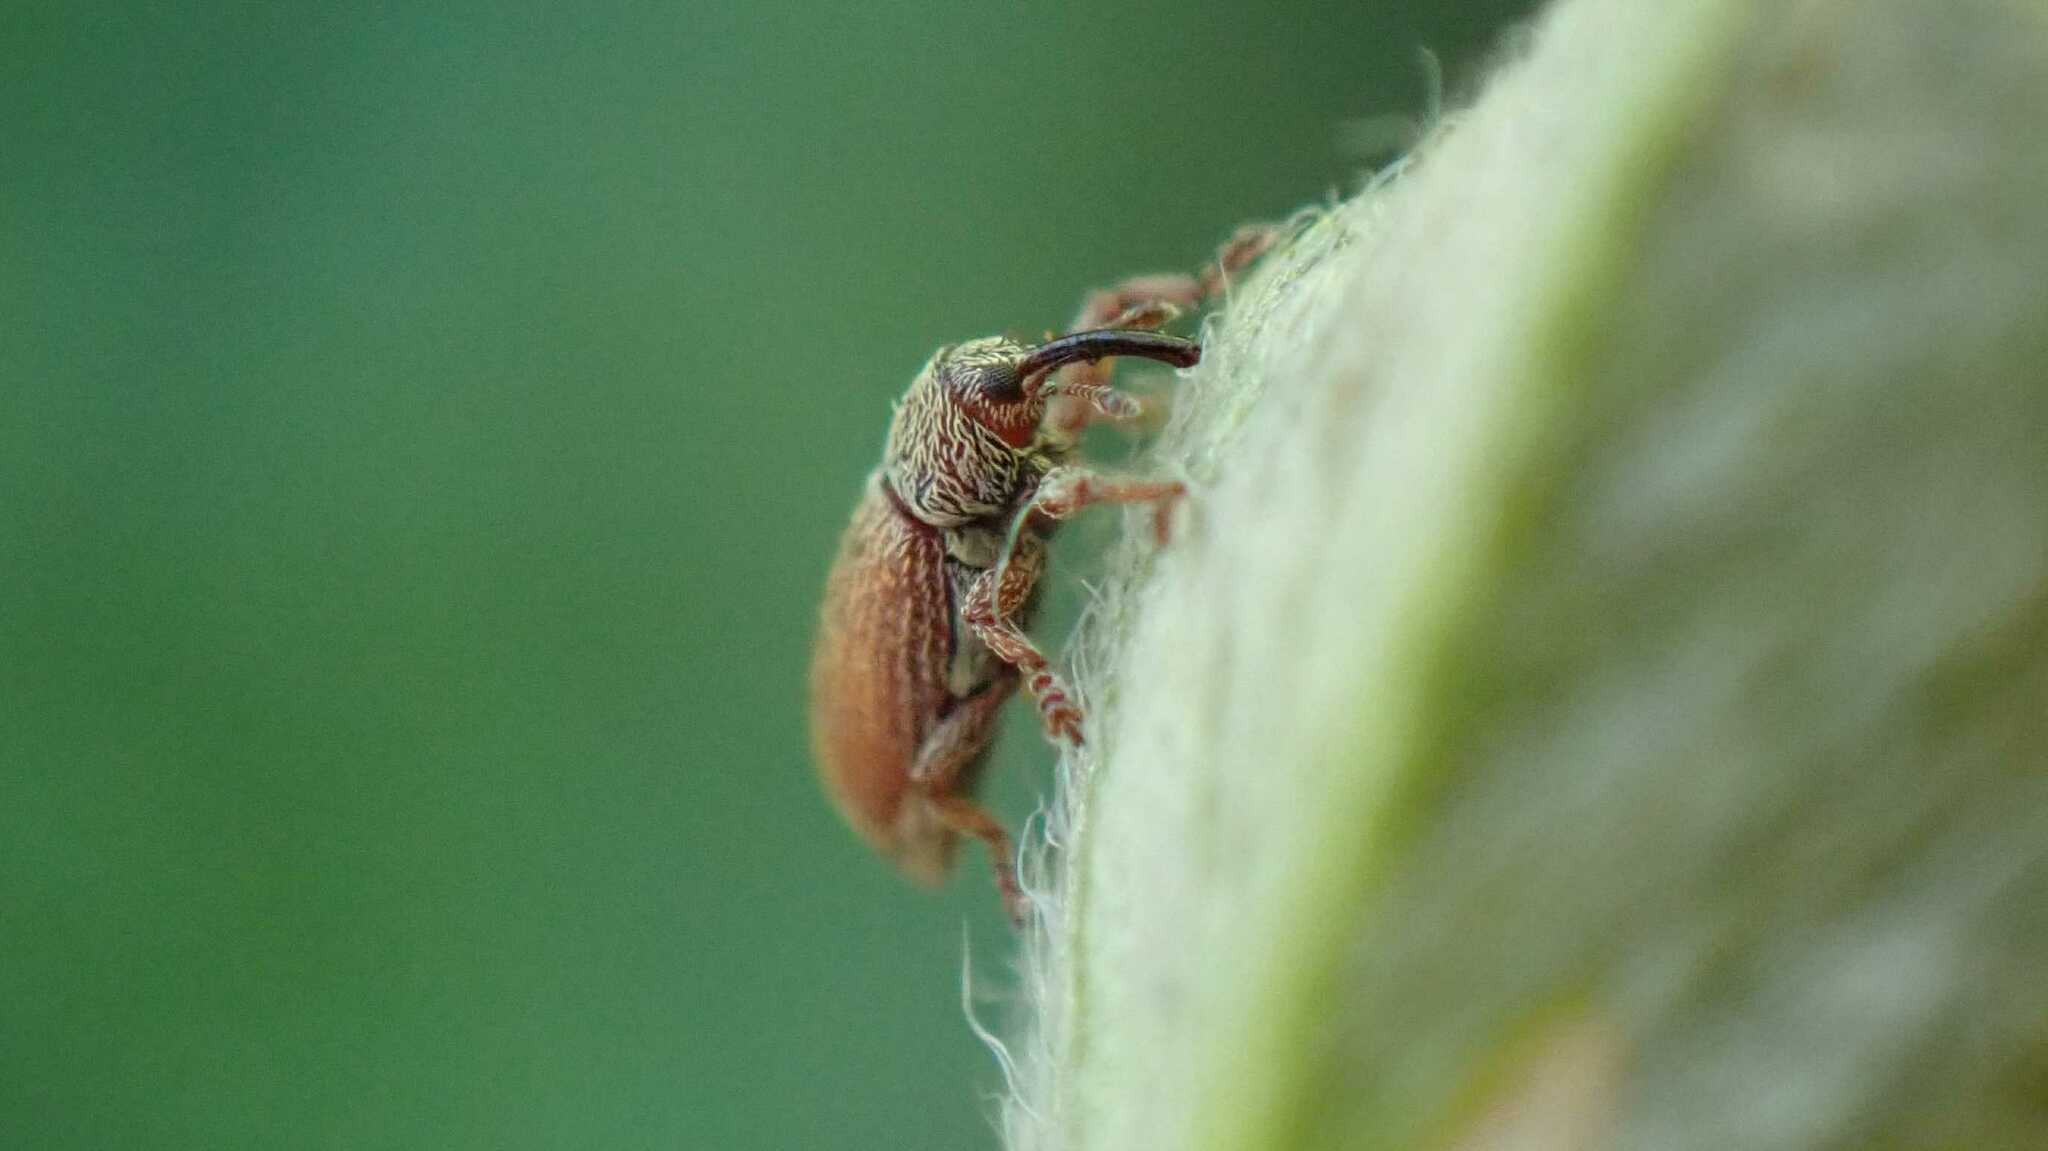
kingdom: Animalia
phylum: Arthropoda
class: Insecta
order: Coleoptera
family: Curculionidae
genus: Brachonyx
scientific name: Brachonyx pineti
